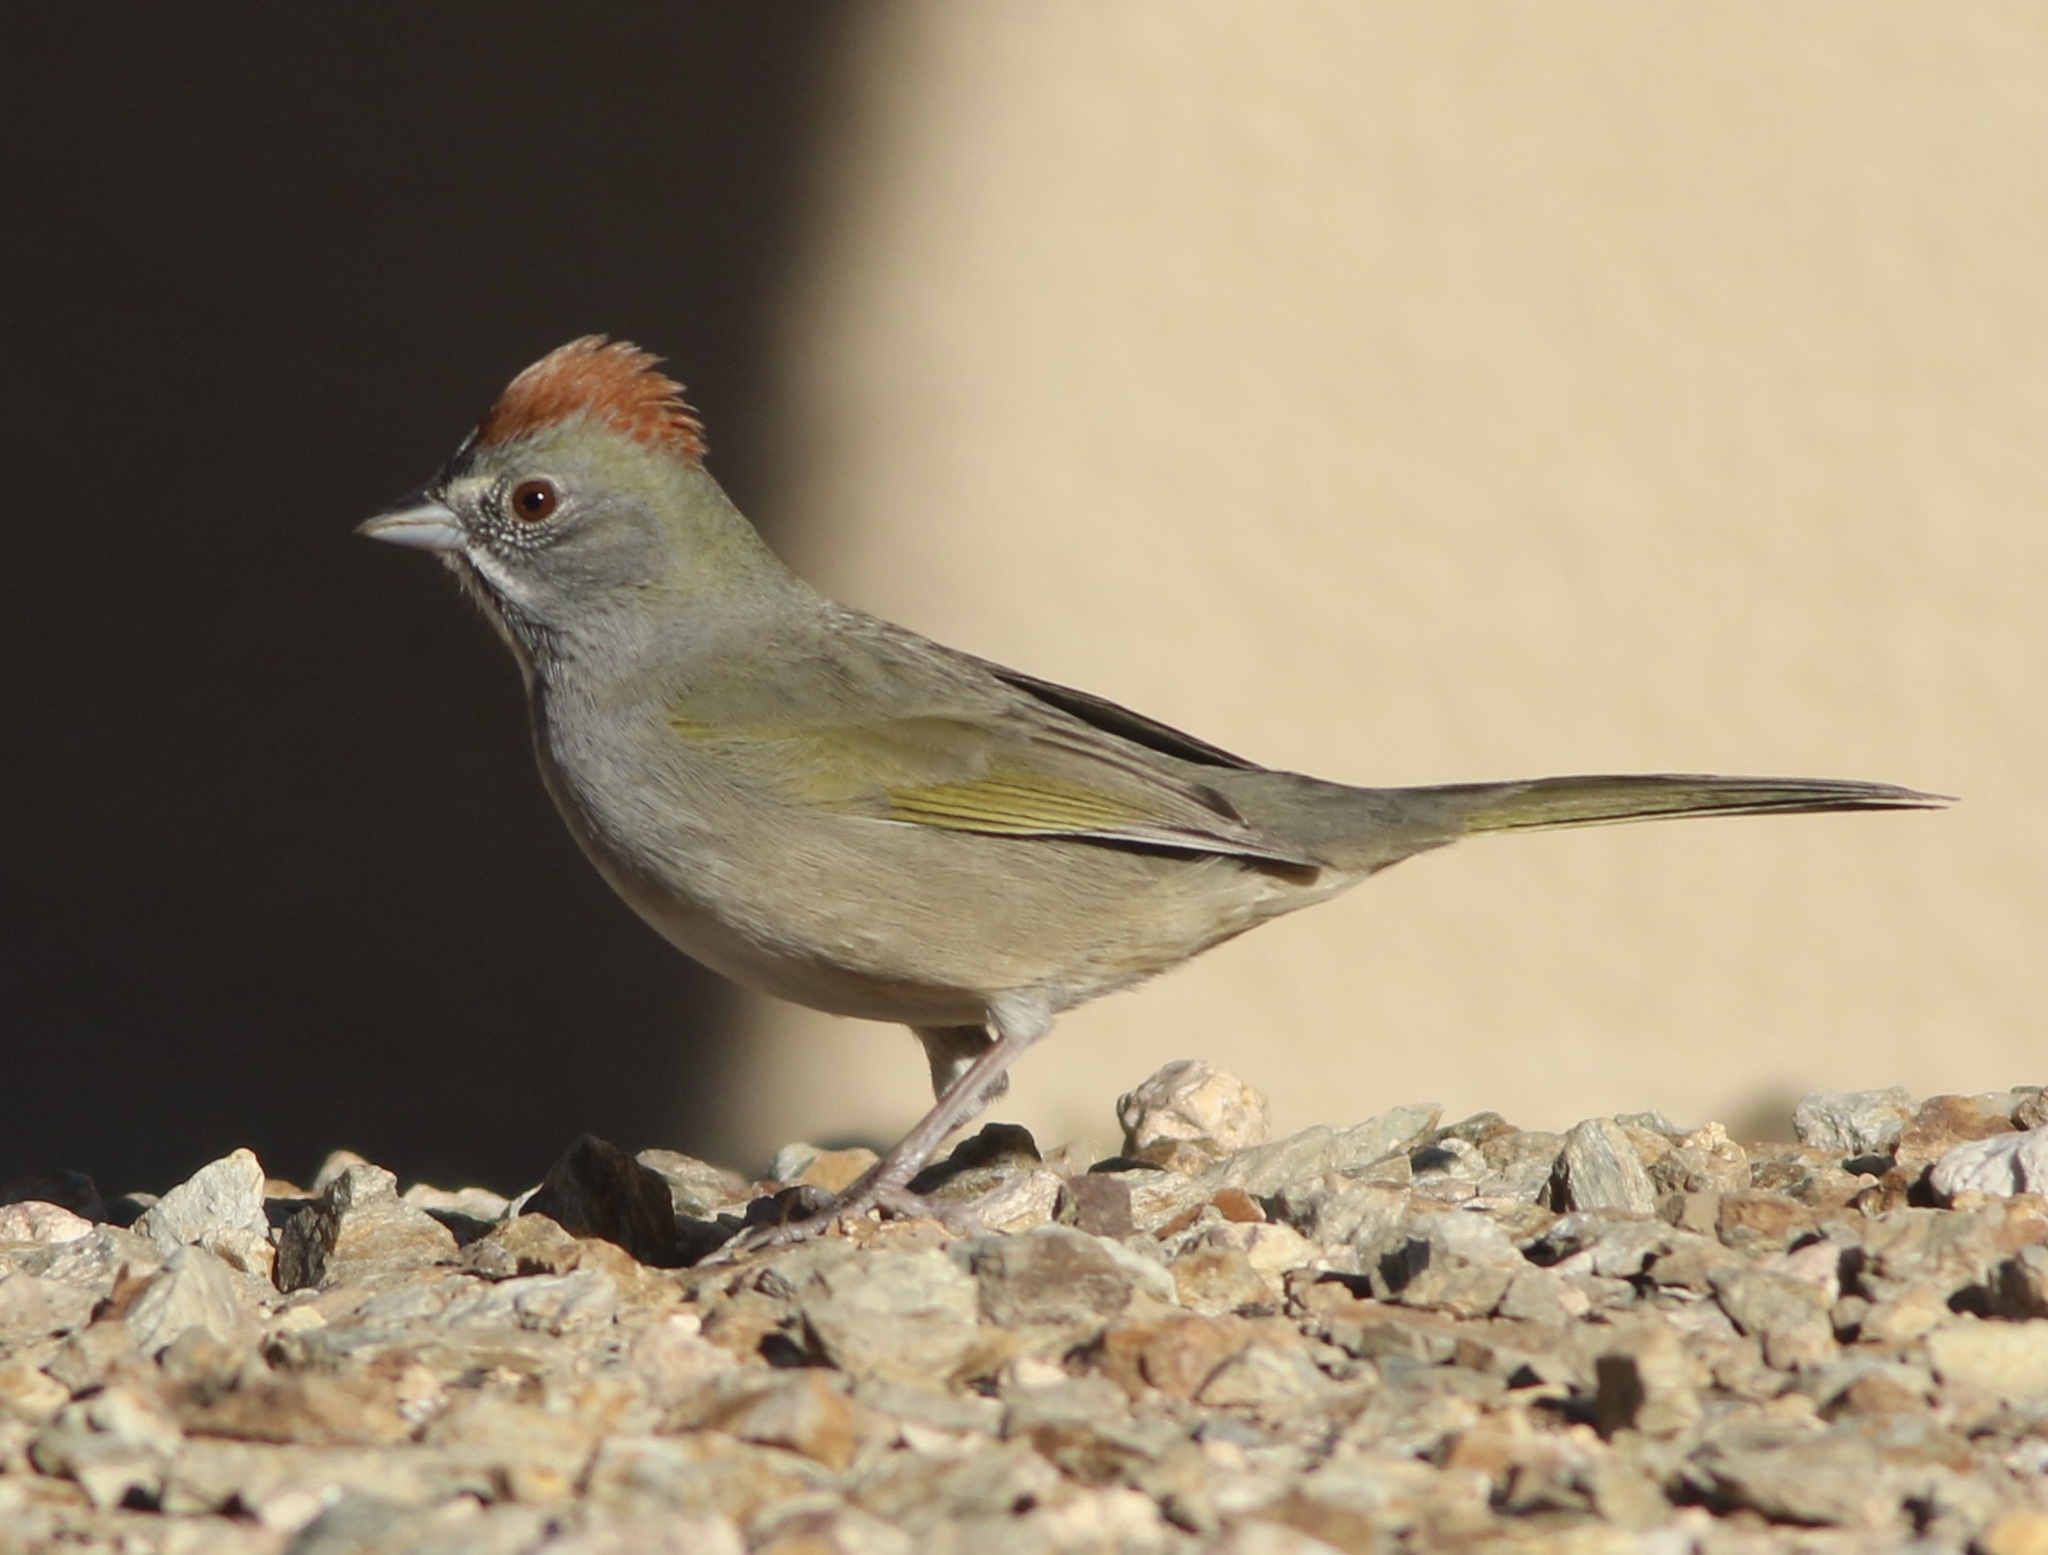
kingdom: Animalia
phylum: Chordata
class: Aves
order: Passeriformes
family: Passerellidae
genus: Pipilo
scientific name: Pipilo chlorurus
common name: Green-tailed towhee
